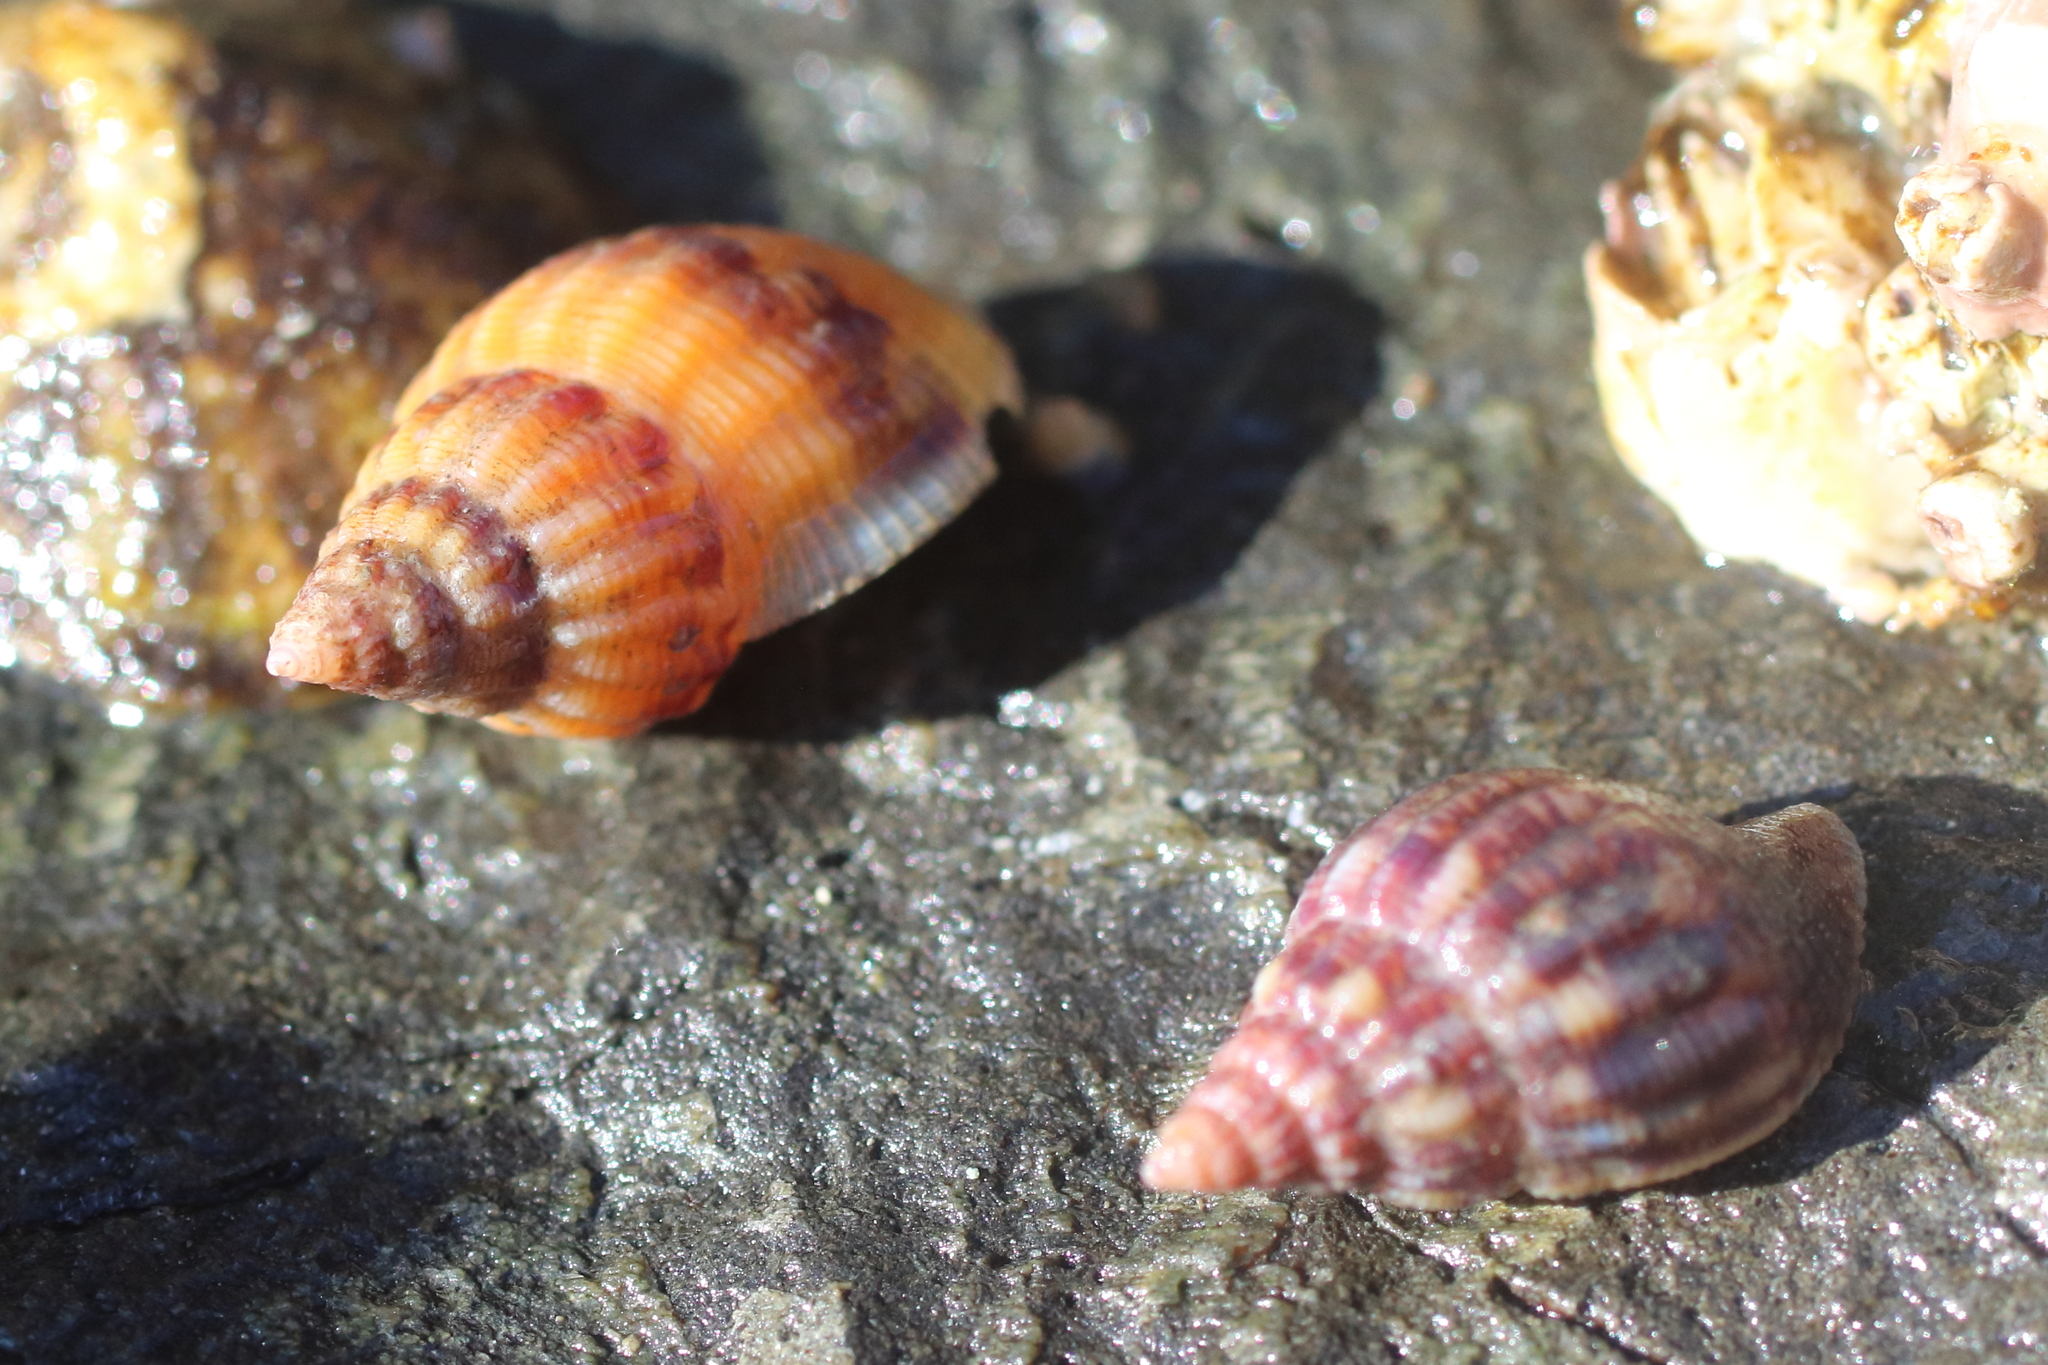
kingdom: Animalia
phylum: Mollusca
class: Gastropoda
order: Neogastropoda
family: Columbellidae
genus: Amphissa
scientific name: Amphissa columbiana
